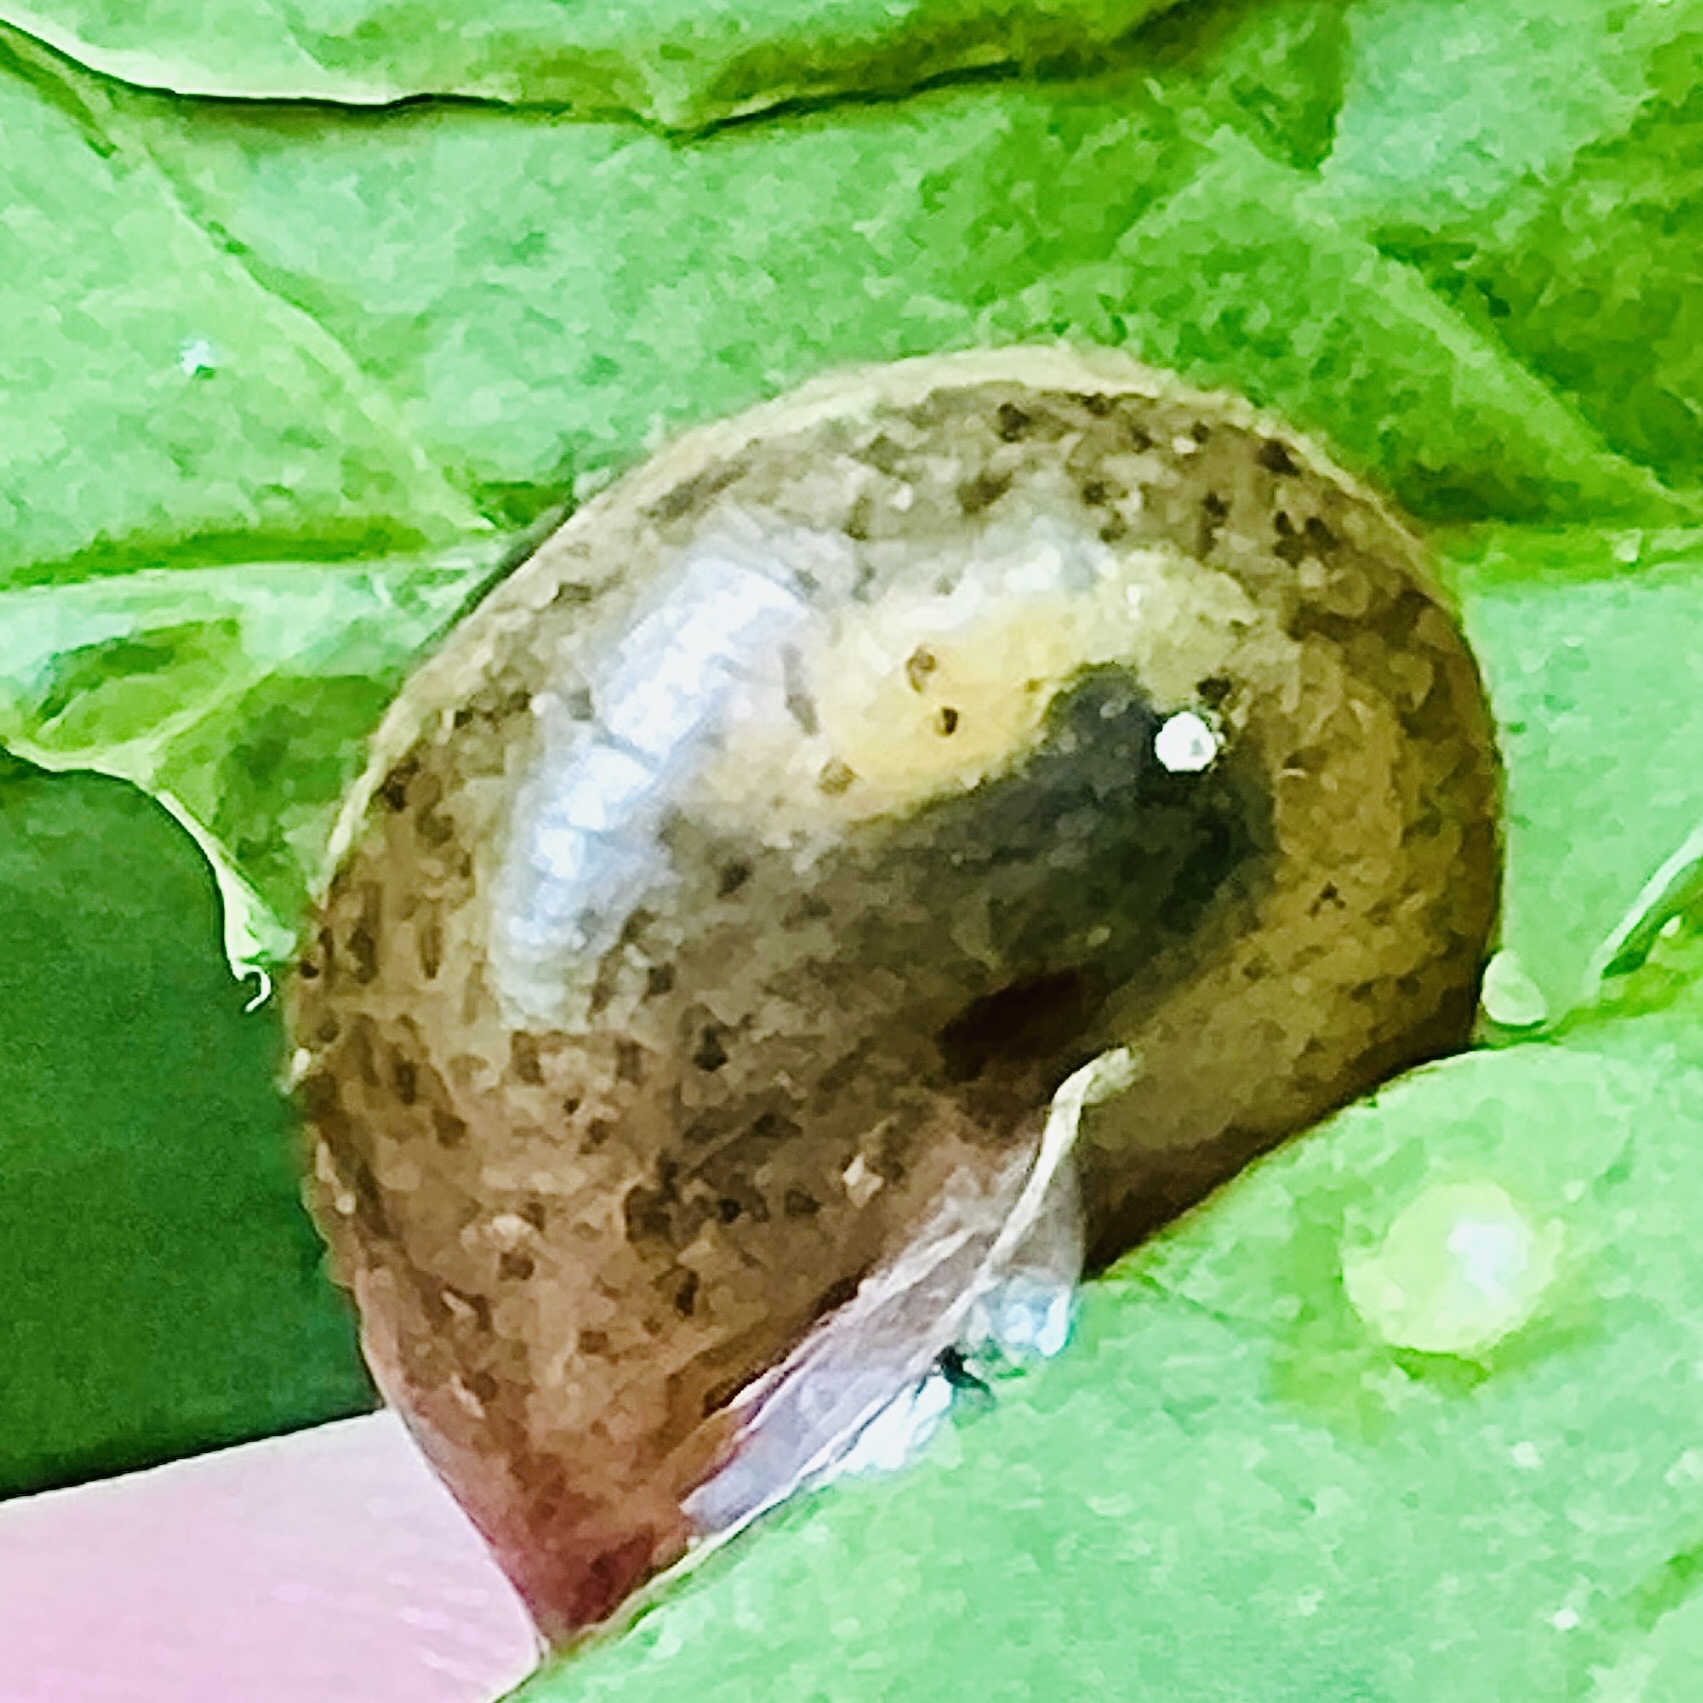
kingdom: Animalia
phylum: Mollusca
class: Gastropoda
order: Stylommatophora
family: Hygromiidae
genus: Monachoides
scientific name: Monachoides incarnatus
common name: Incarnate snail
